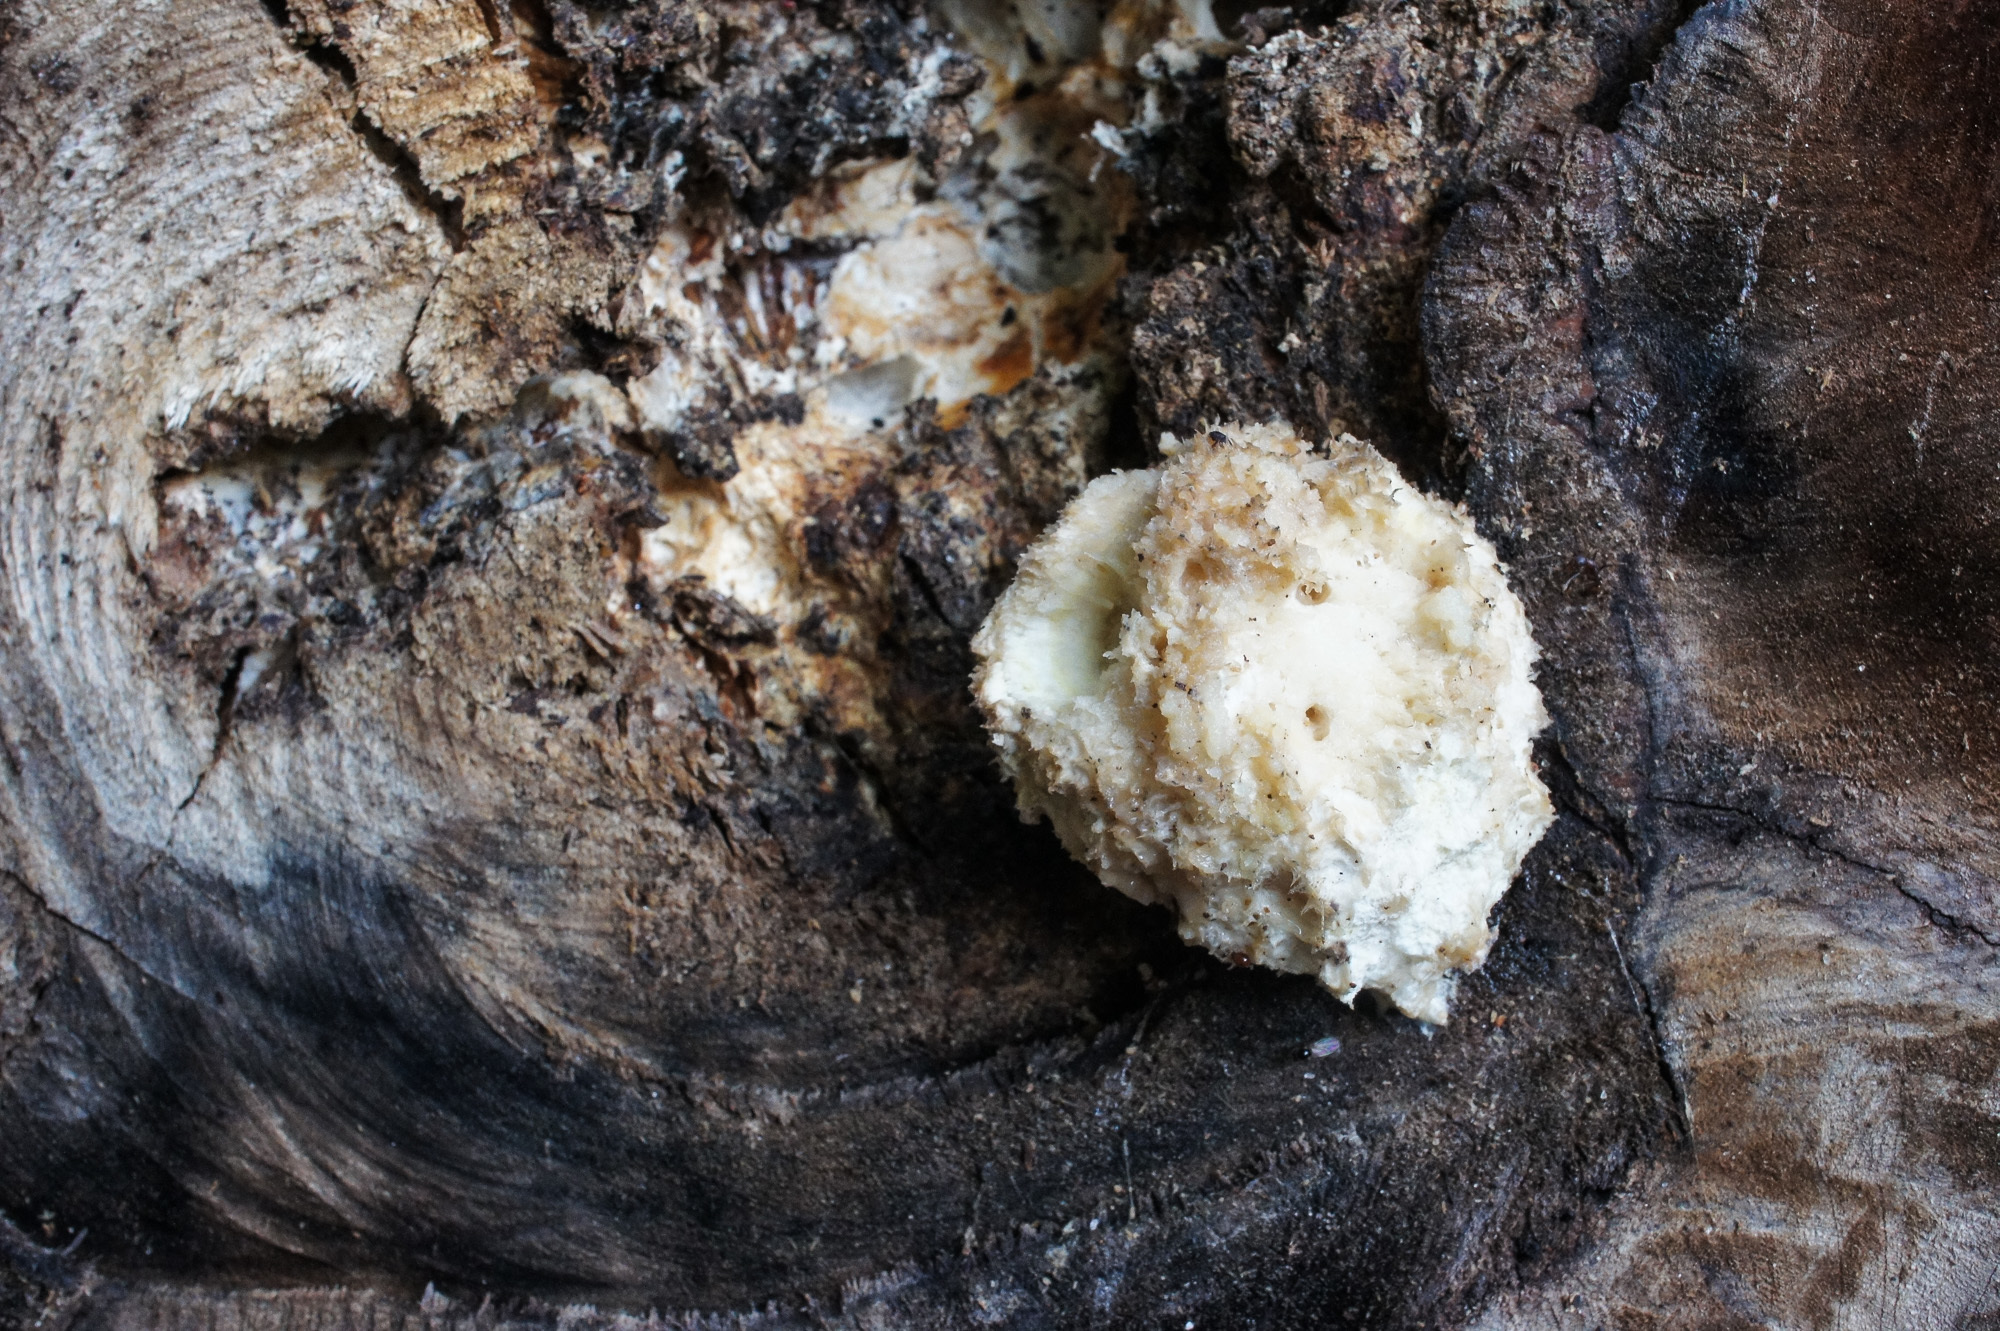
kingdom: Fungi
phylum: Basidiomycota
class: Agaricomycetes
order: Polyporales
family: Dacryobolaceae
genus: Postia
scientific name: Postia ptychogaster
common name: Powderpuff bracket
